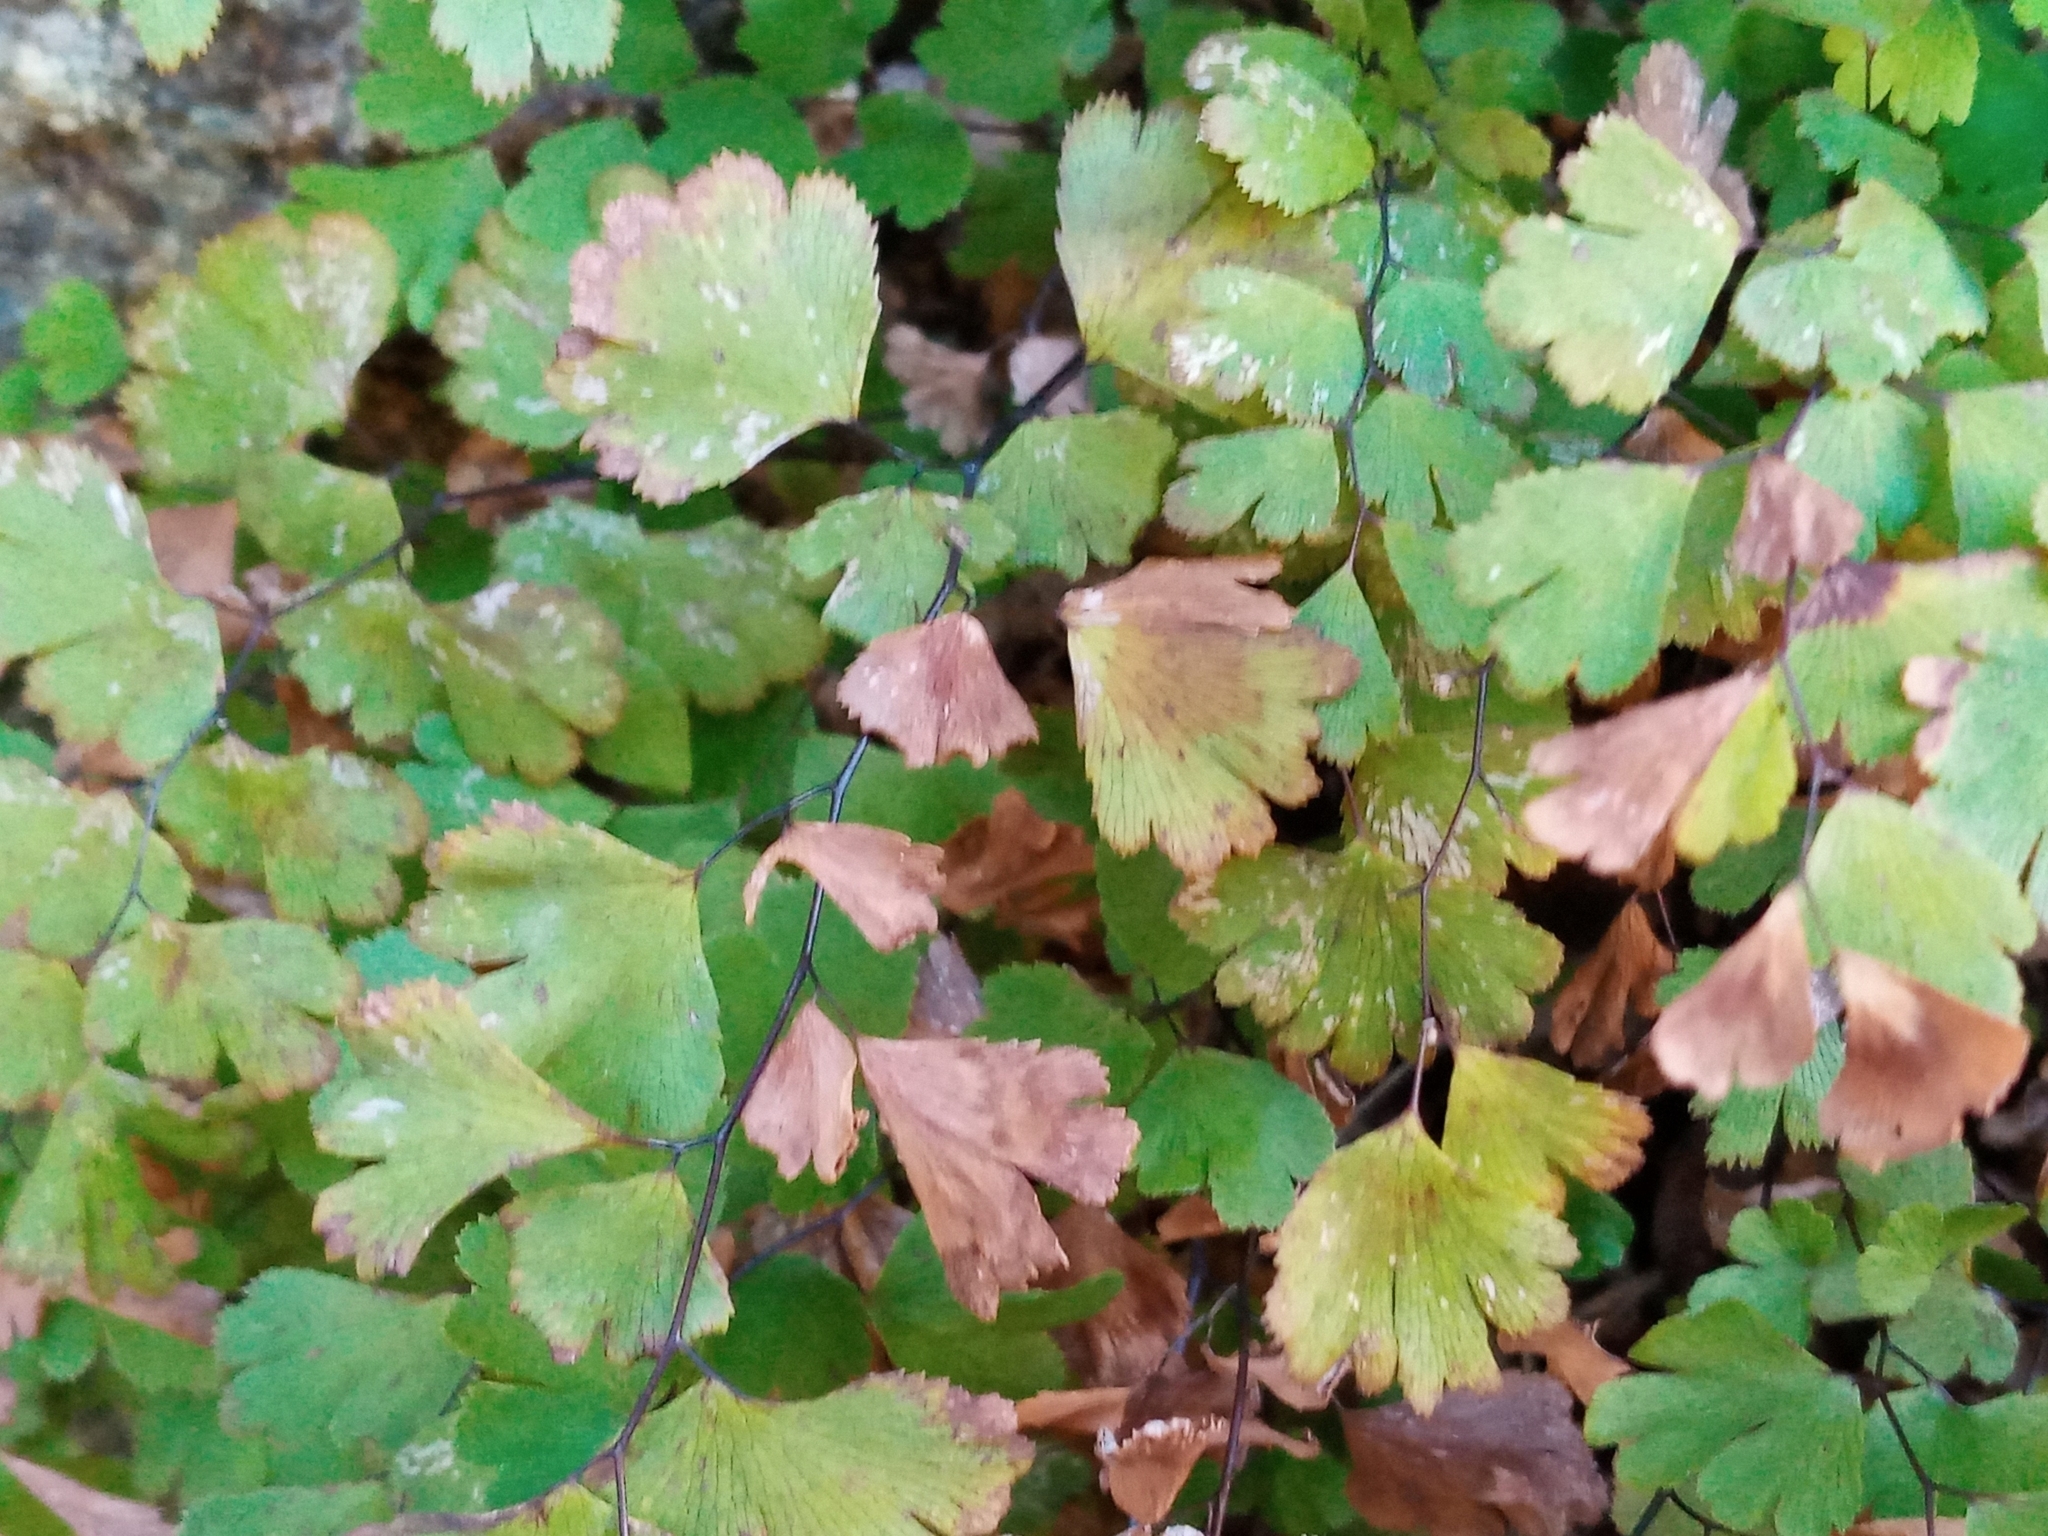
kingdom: Plantae
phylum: Tracheophyta
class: Polypodiopsida
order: Polypodiales
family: Pteridaceae
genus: Adiantum
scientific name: Adiantum capillus-veneris
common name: Maidenhair fern
